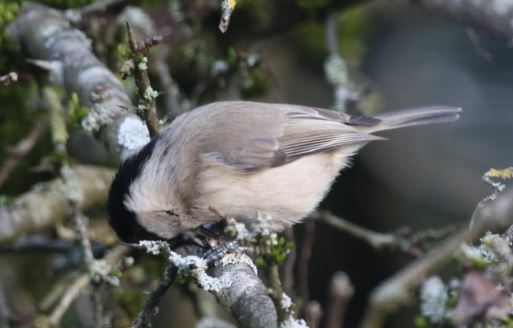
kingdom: Animalia
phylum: Chordata
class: Aves
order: Passeriformes
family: Paridae
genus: Poecile
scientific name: Poecile palustris
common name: Marsh tit
